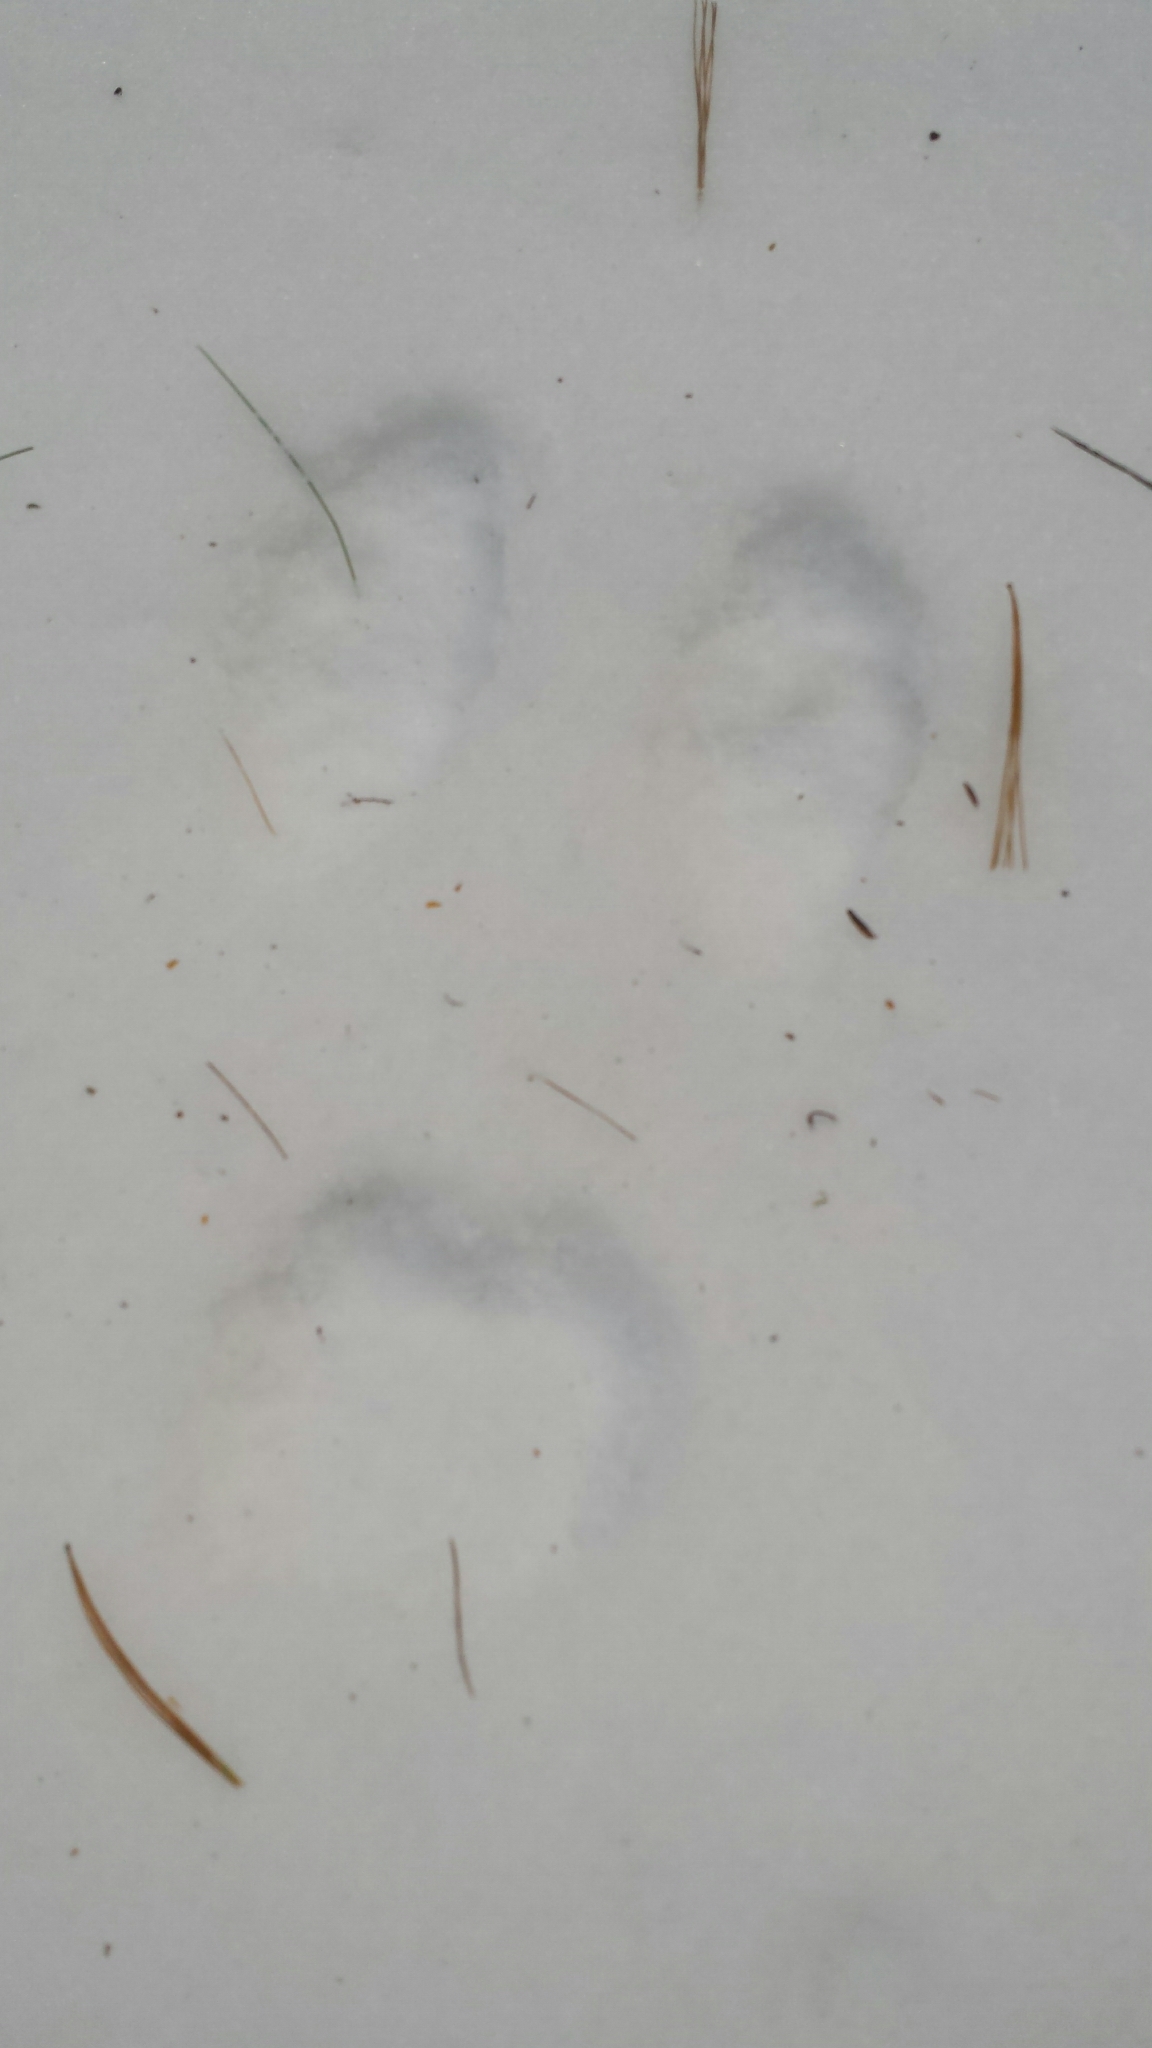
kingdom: Animalia
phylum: Chordata
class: Mammalia
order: Lagomorpha
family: Leporidae
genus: Lepus
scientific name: Lepus americanus
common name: Snowshoe hare
